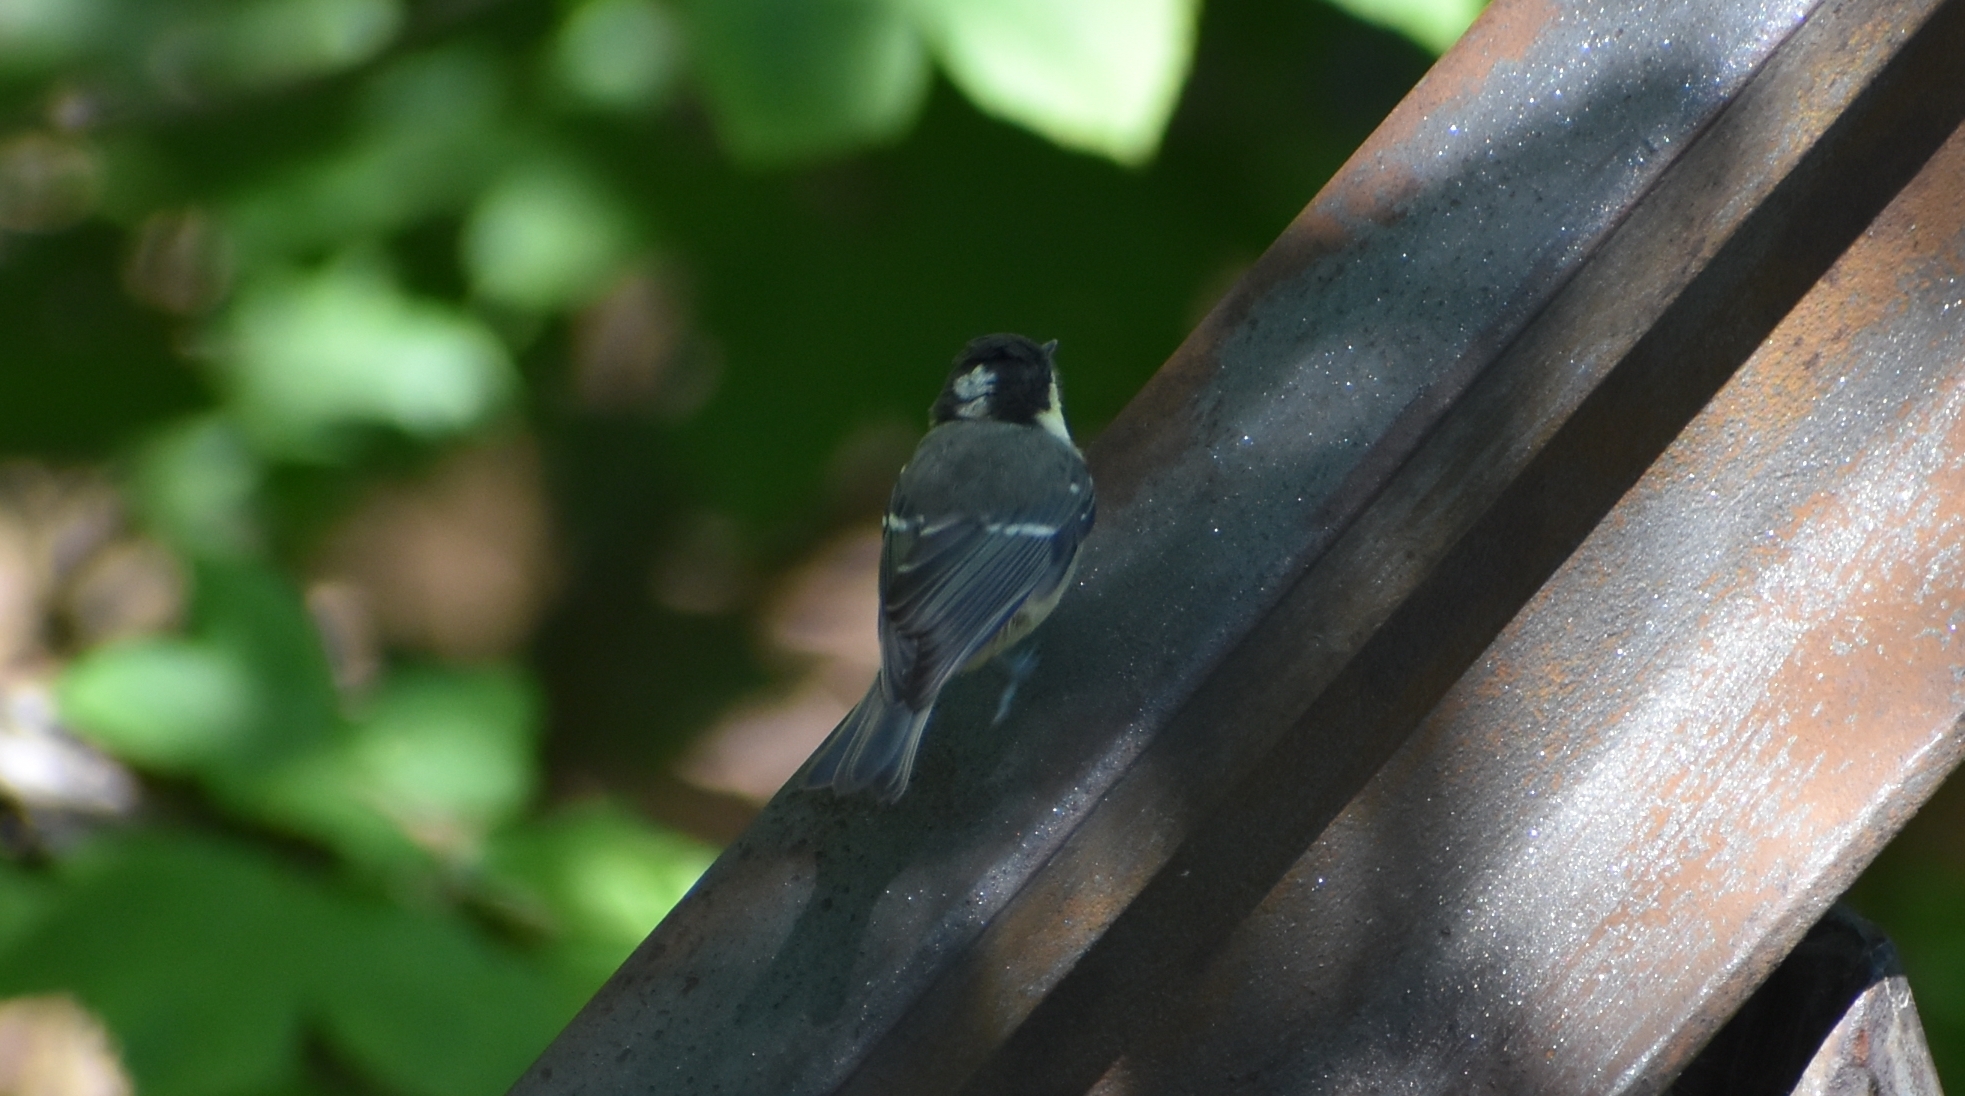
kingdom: Animalia
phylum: Chordata
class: Aves
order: Passeriformes
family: Paridae
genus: Periparus
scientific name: Periparus ater
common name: Coal tit
